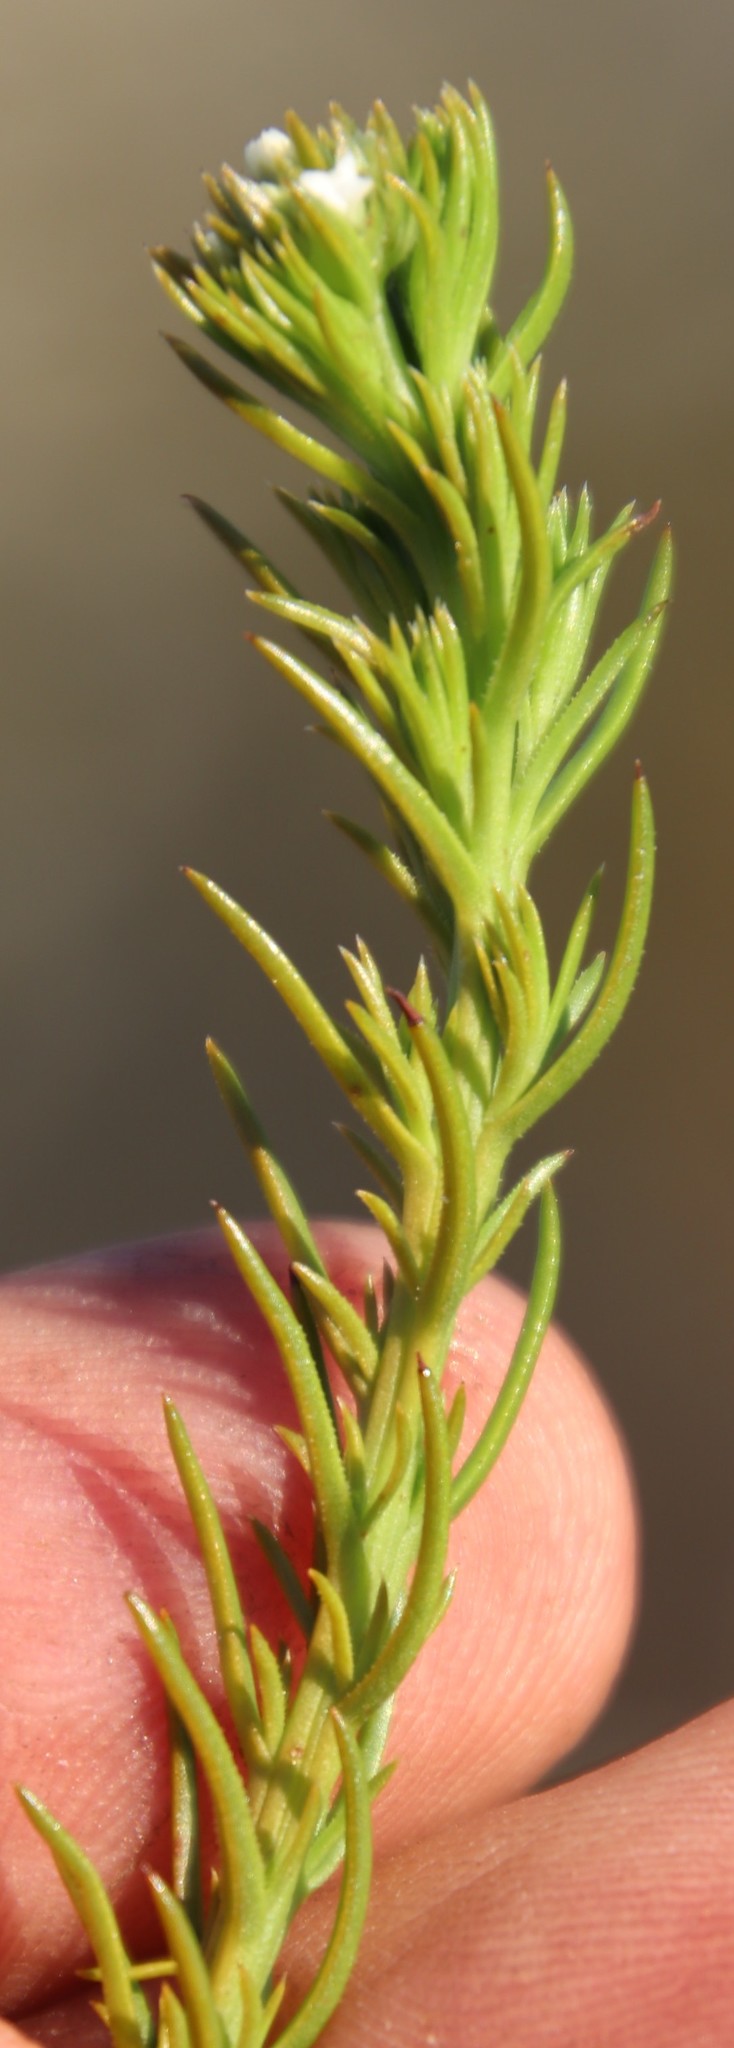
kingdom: Plantae
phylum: Tracheophyta
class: Magnoliopsida
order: Santalales
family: Thesiaceae
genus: Thesium
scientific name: Thesium scabrum
